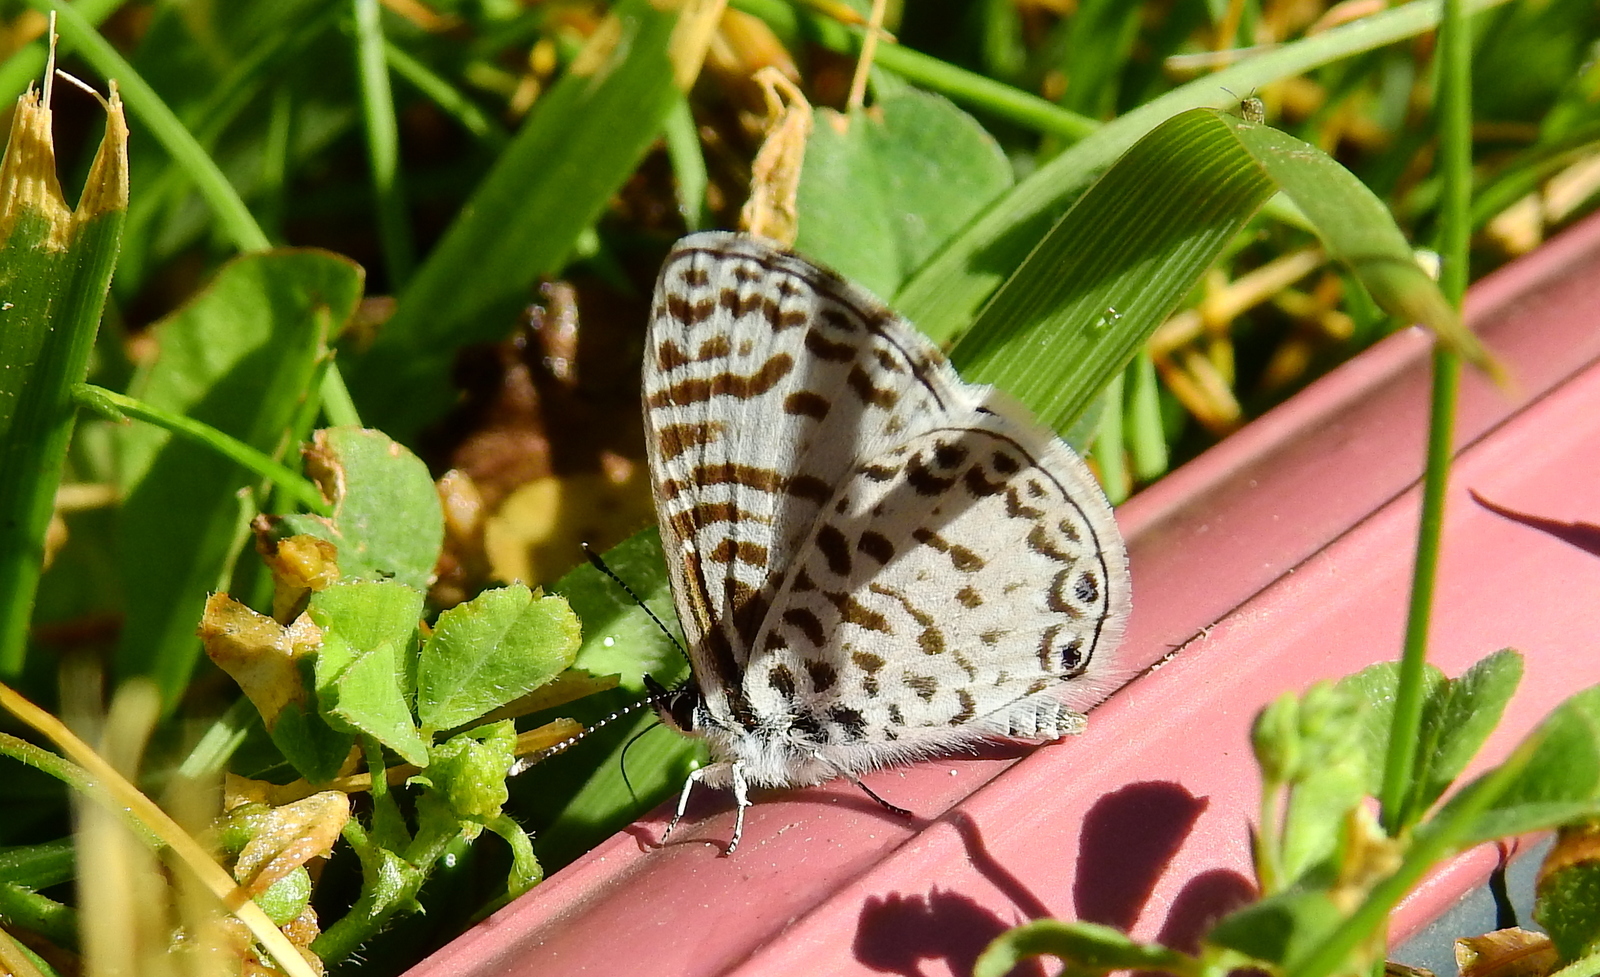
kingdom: Animalia
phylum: Arthropoda
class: Insecta
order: Lepidoptera
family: Lycaenidae
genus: Leptotes
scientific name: Leptotes cassius
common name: Cassius blue
